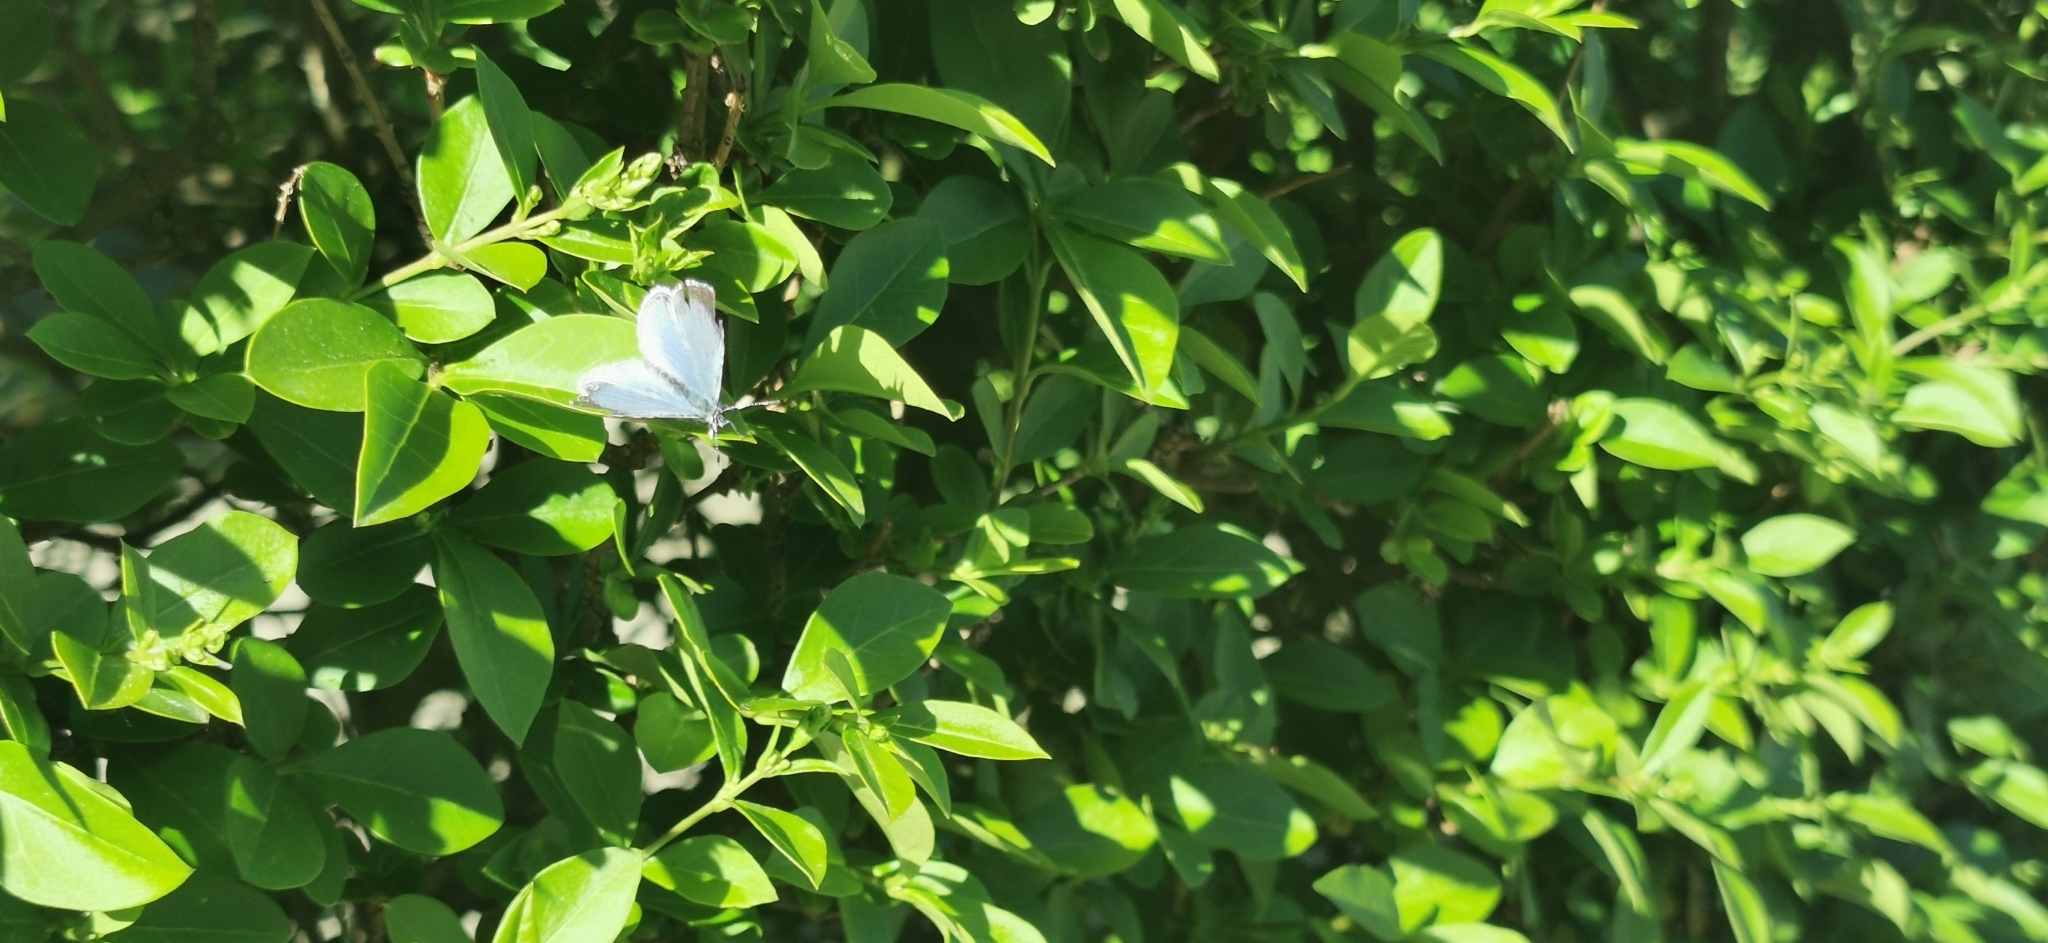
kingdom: Animalia
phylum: Arthropoda
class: Insecta
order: Lepidoptera
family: Lycaenidae
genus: Celastrina
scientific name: Celastrina argiolus
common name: Holly blue
